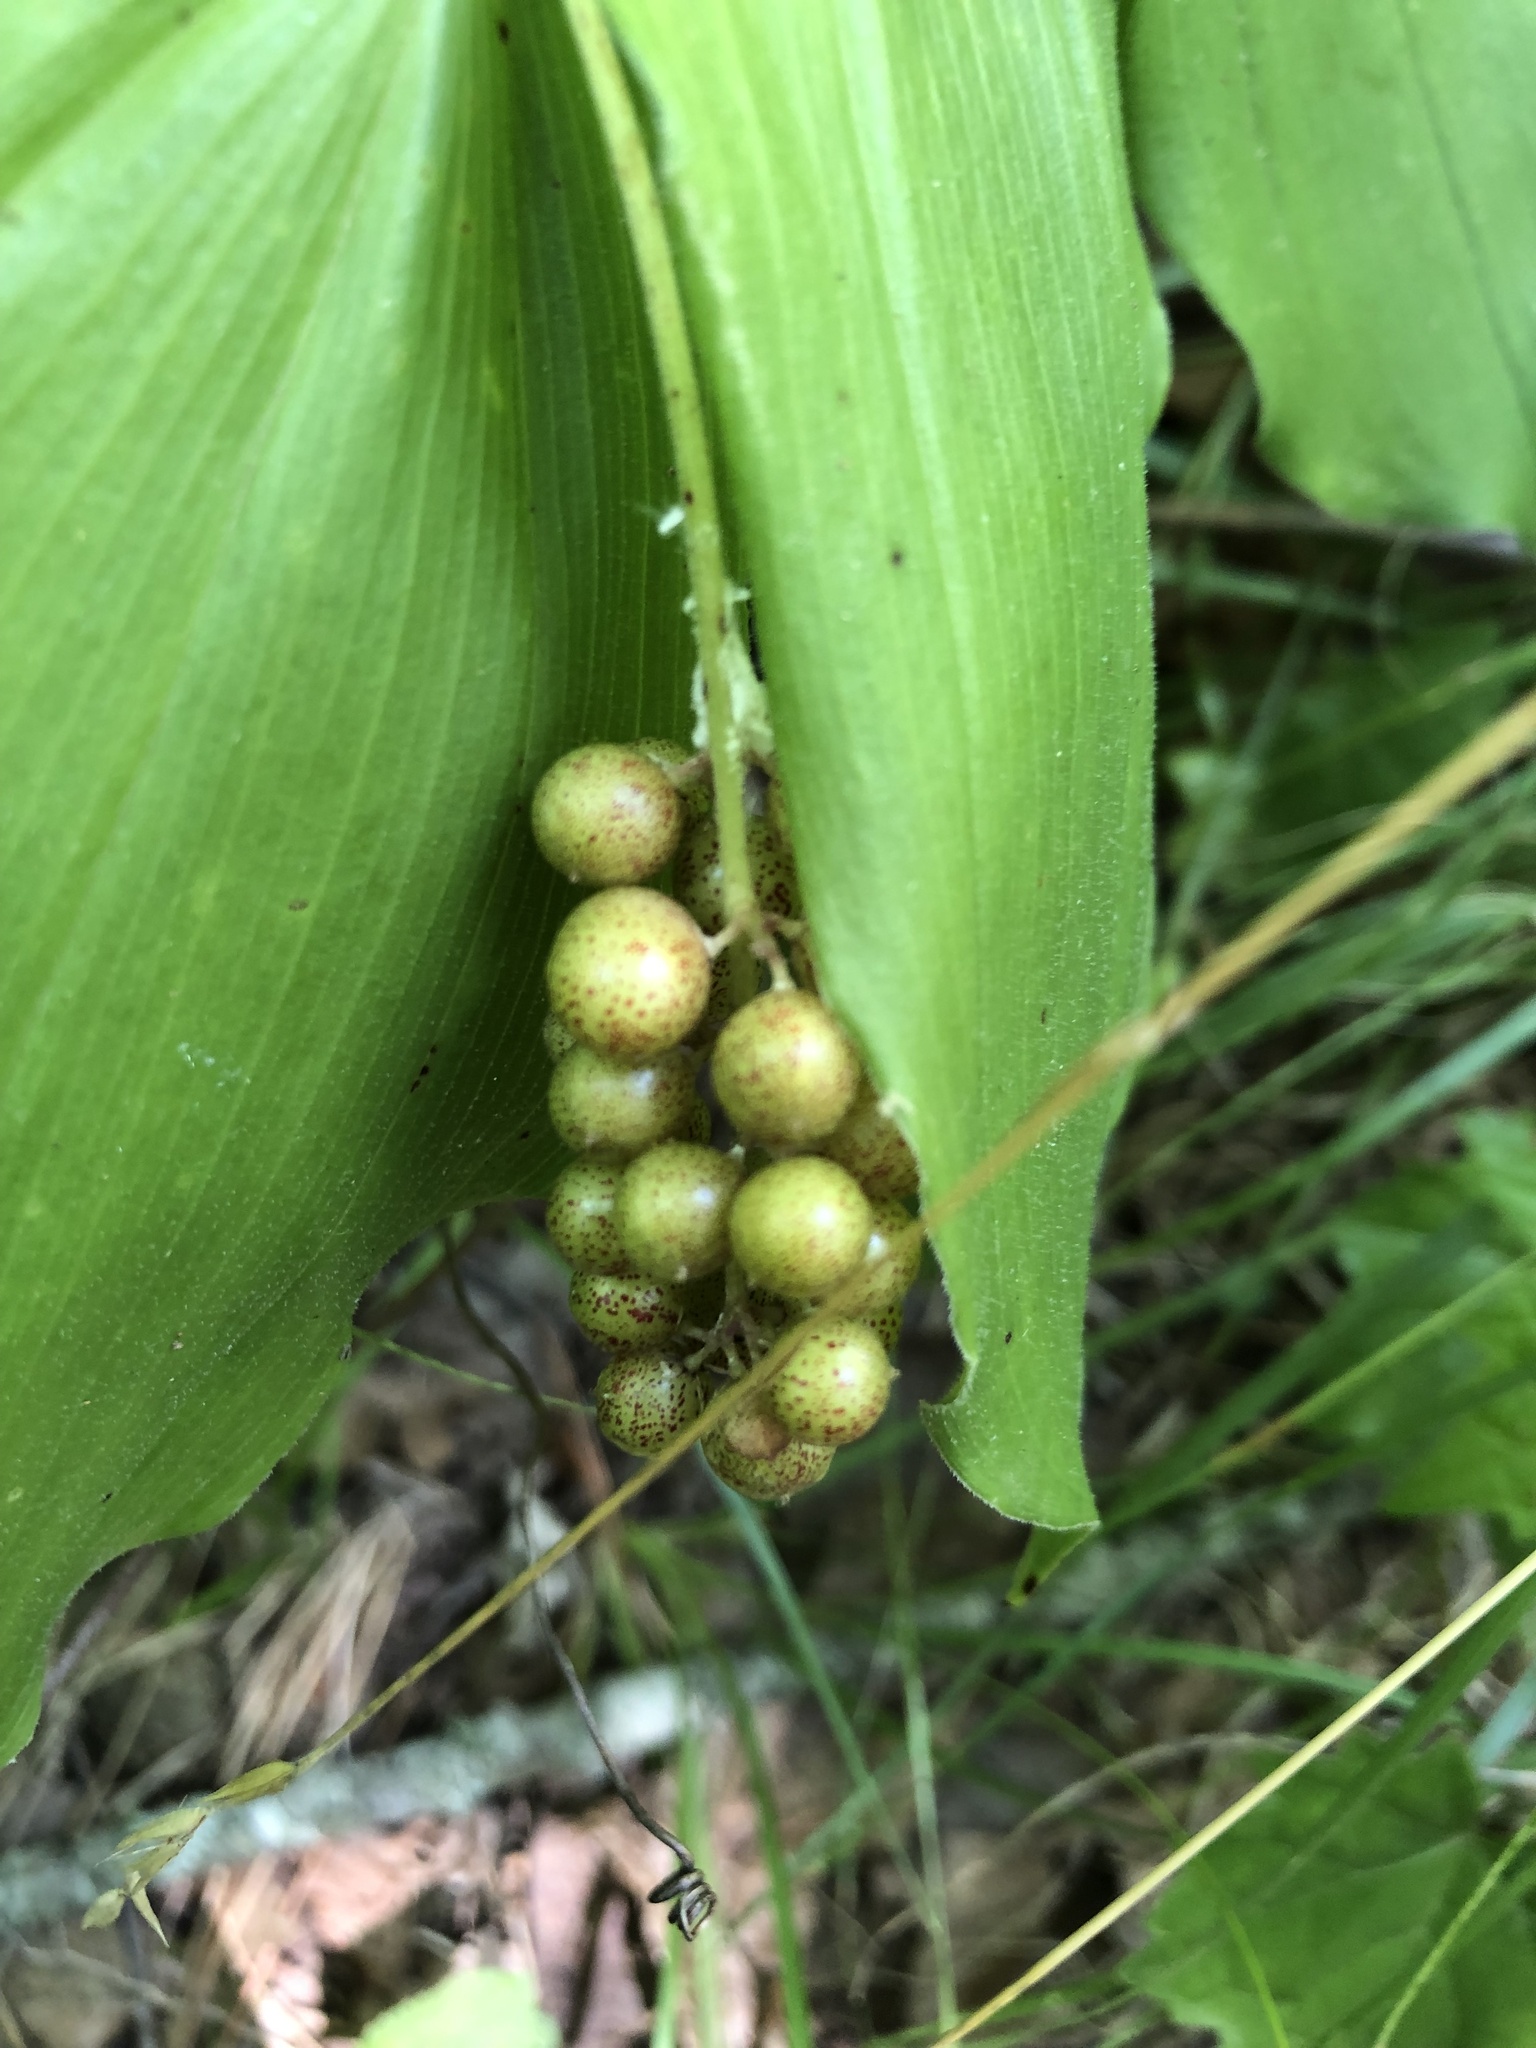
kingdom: Plantae
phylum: Tracheophyta
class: Liliopsida
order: Asparagales
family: Asparagaceae
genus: Maianthemum
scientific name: Maianthemum racemosum
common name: False spikenard
